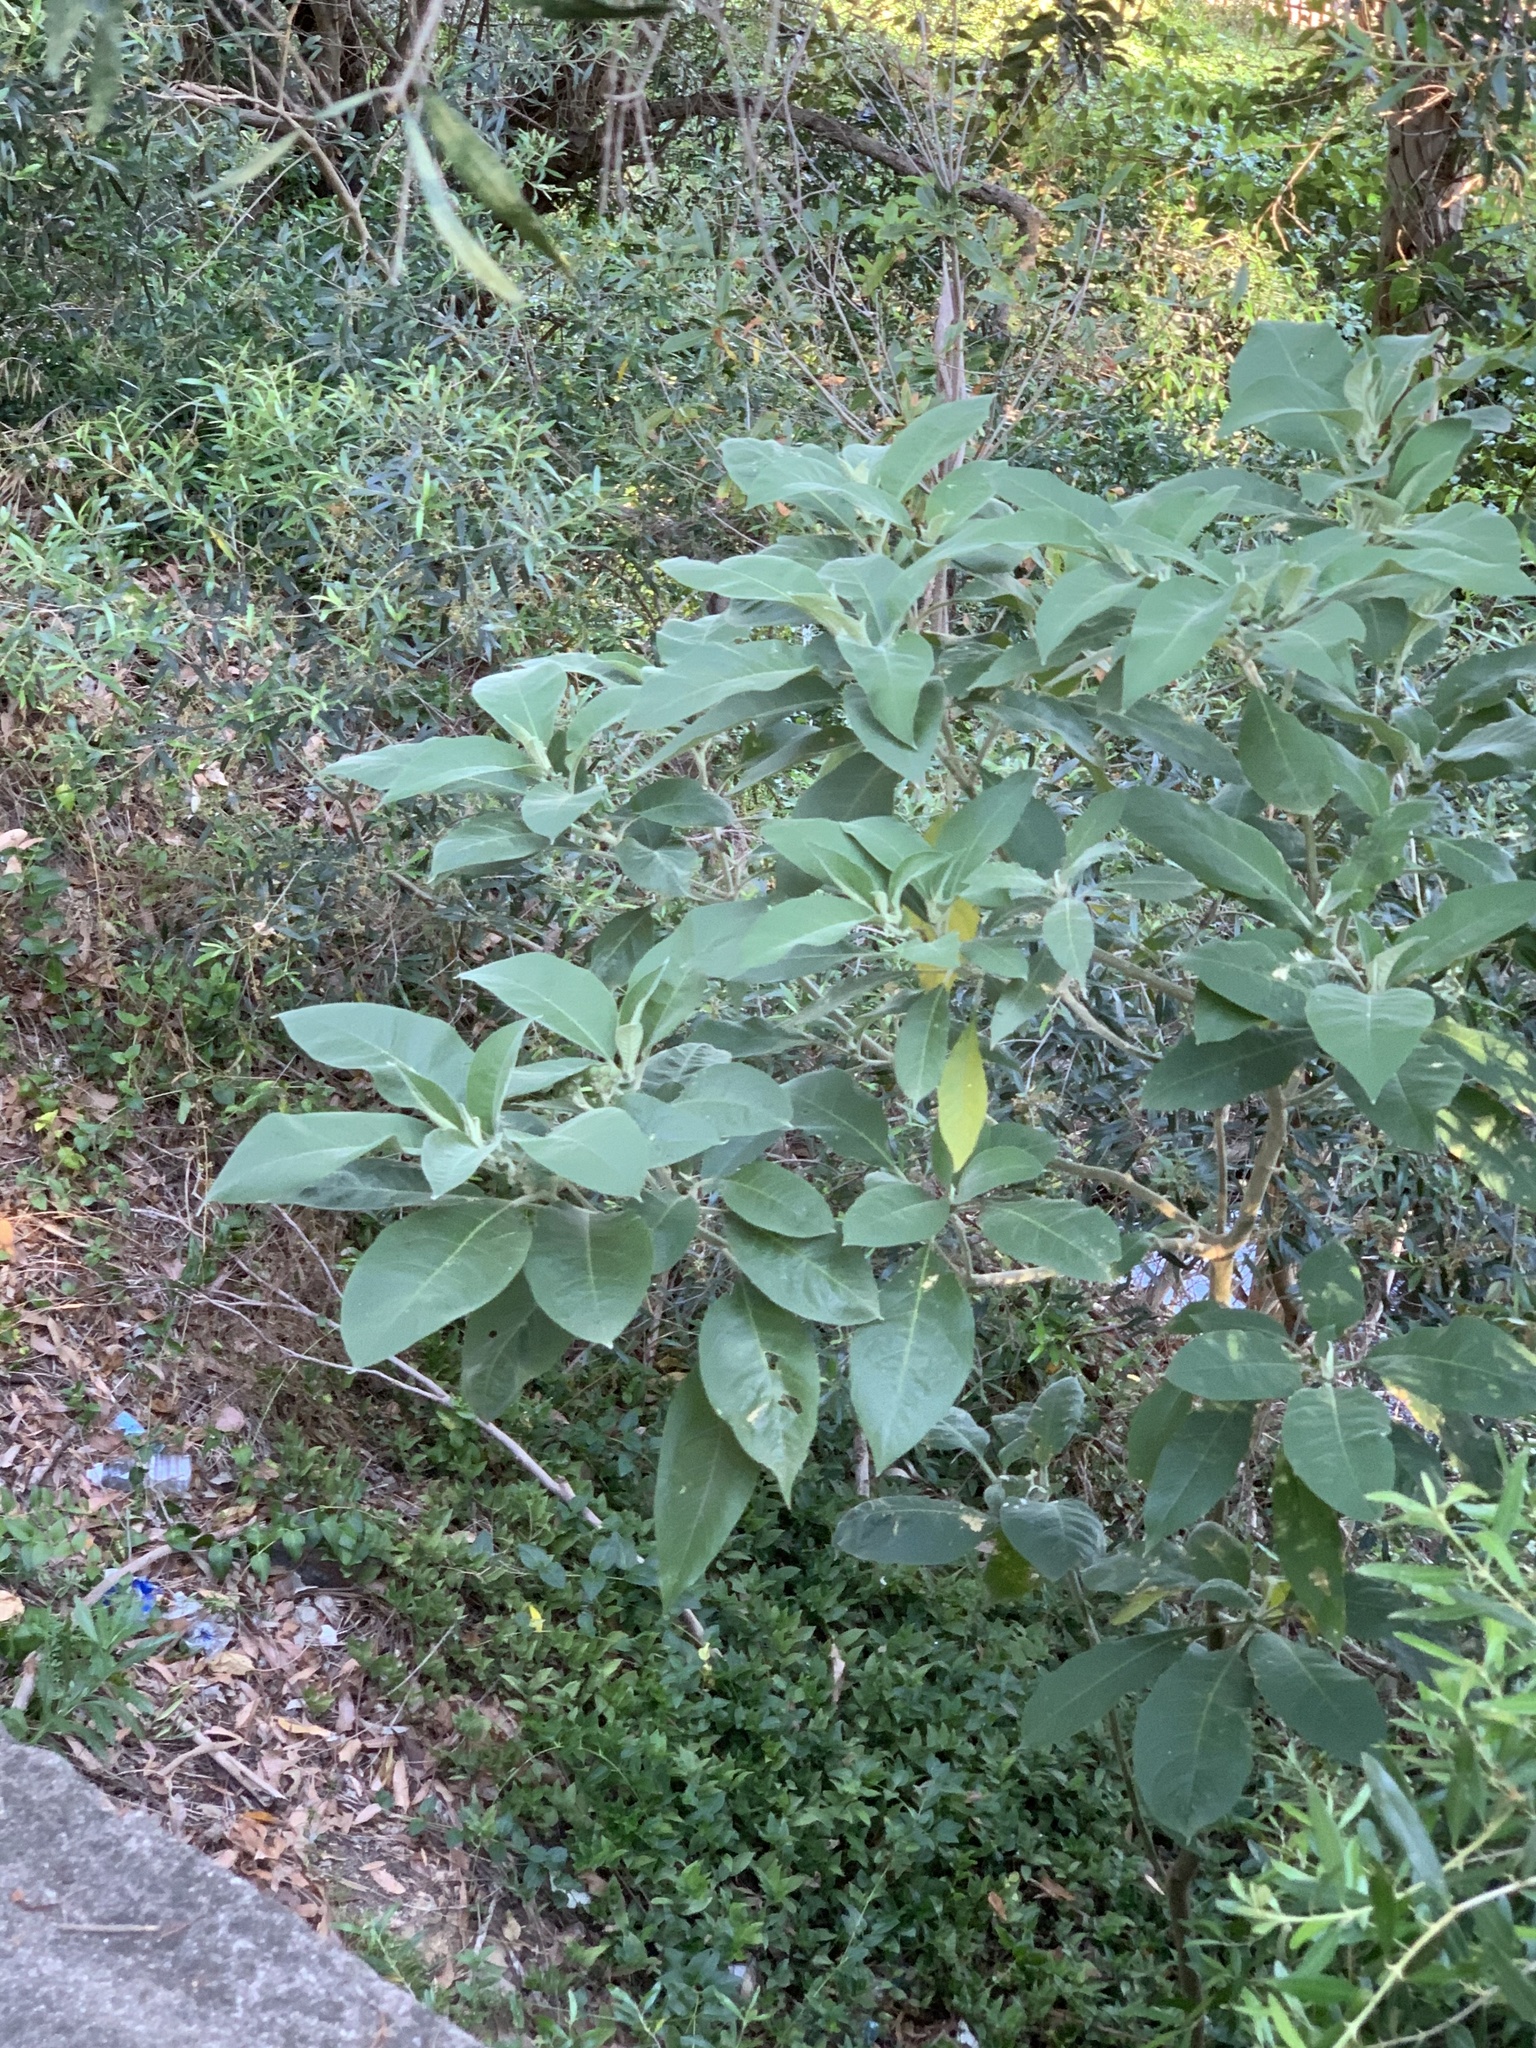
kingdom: Plantae
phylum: Tracheophyta
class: Magnoliopsida
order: Solanales
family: Solanaceae
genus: Solanum
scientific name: Solanum mauritianum
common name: Earleaf nightshade
